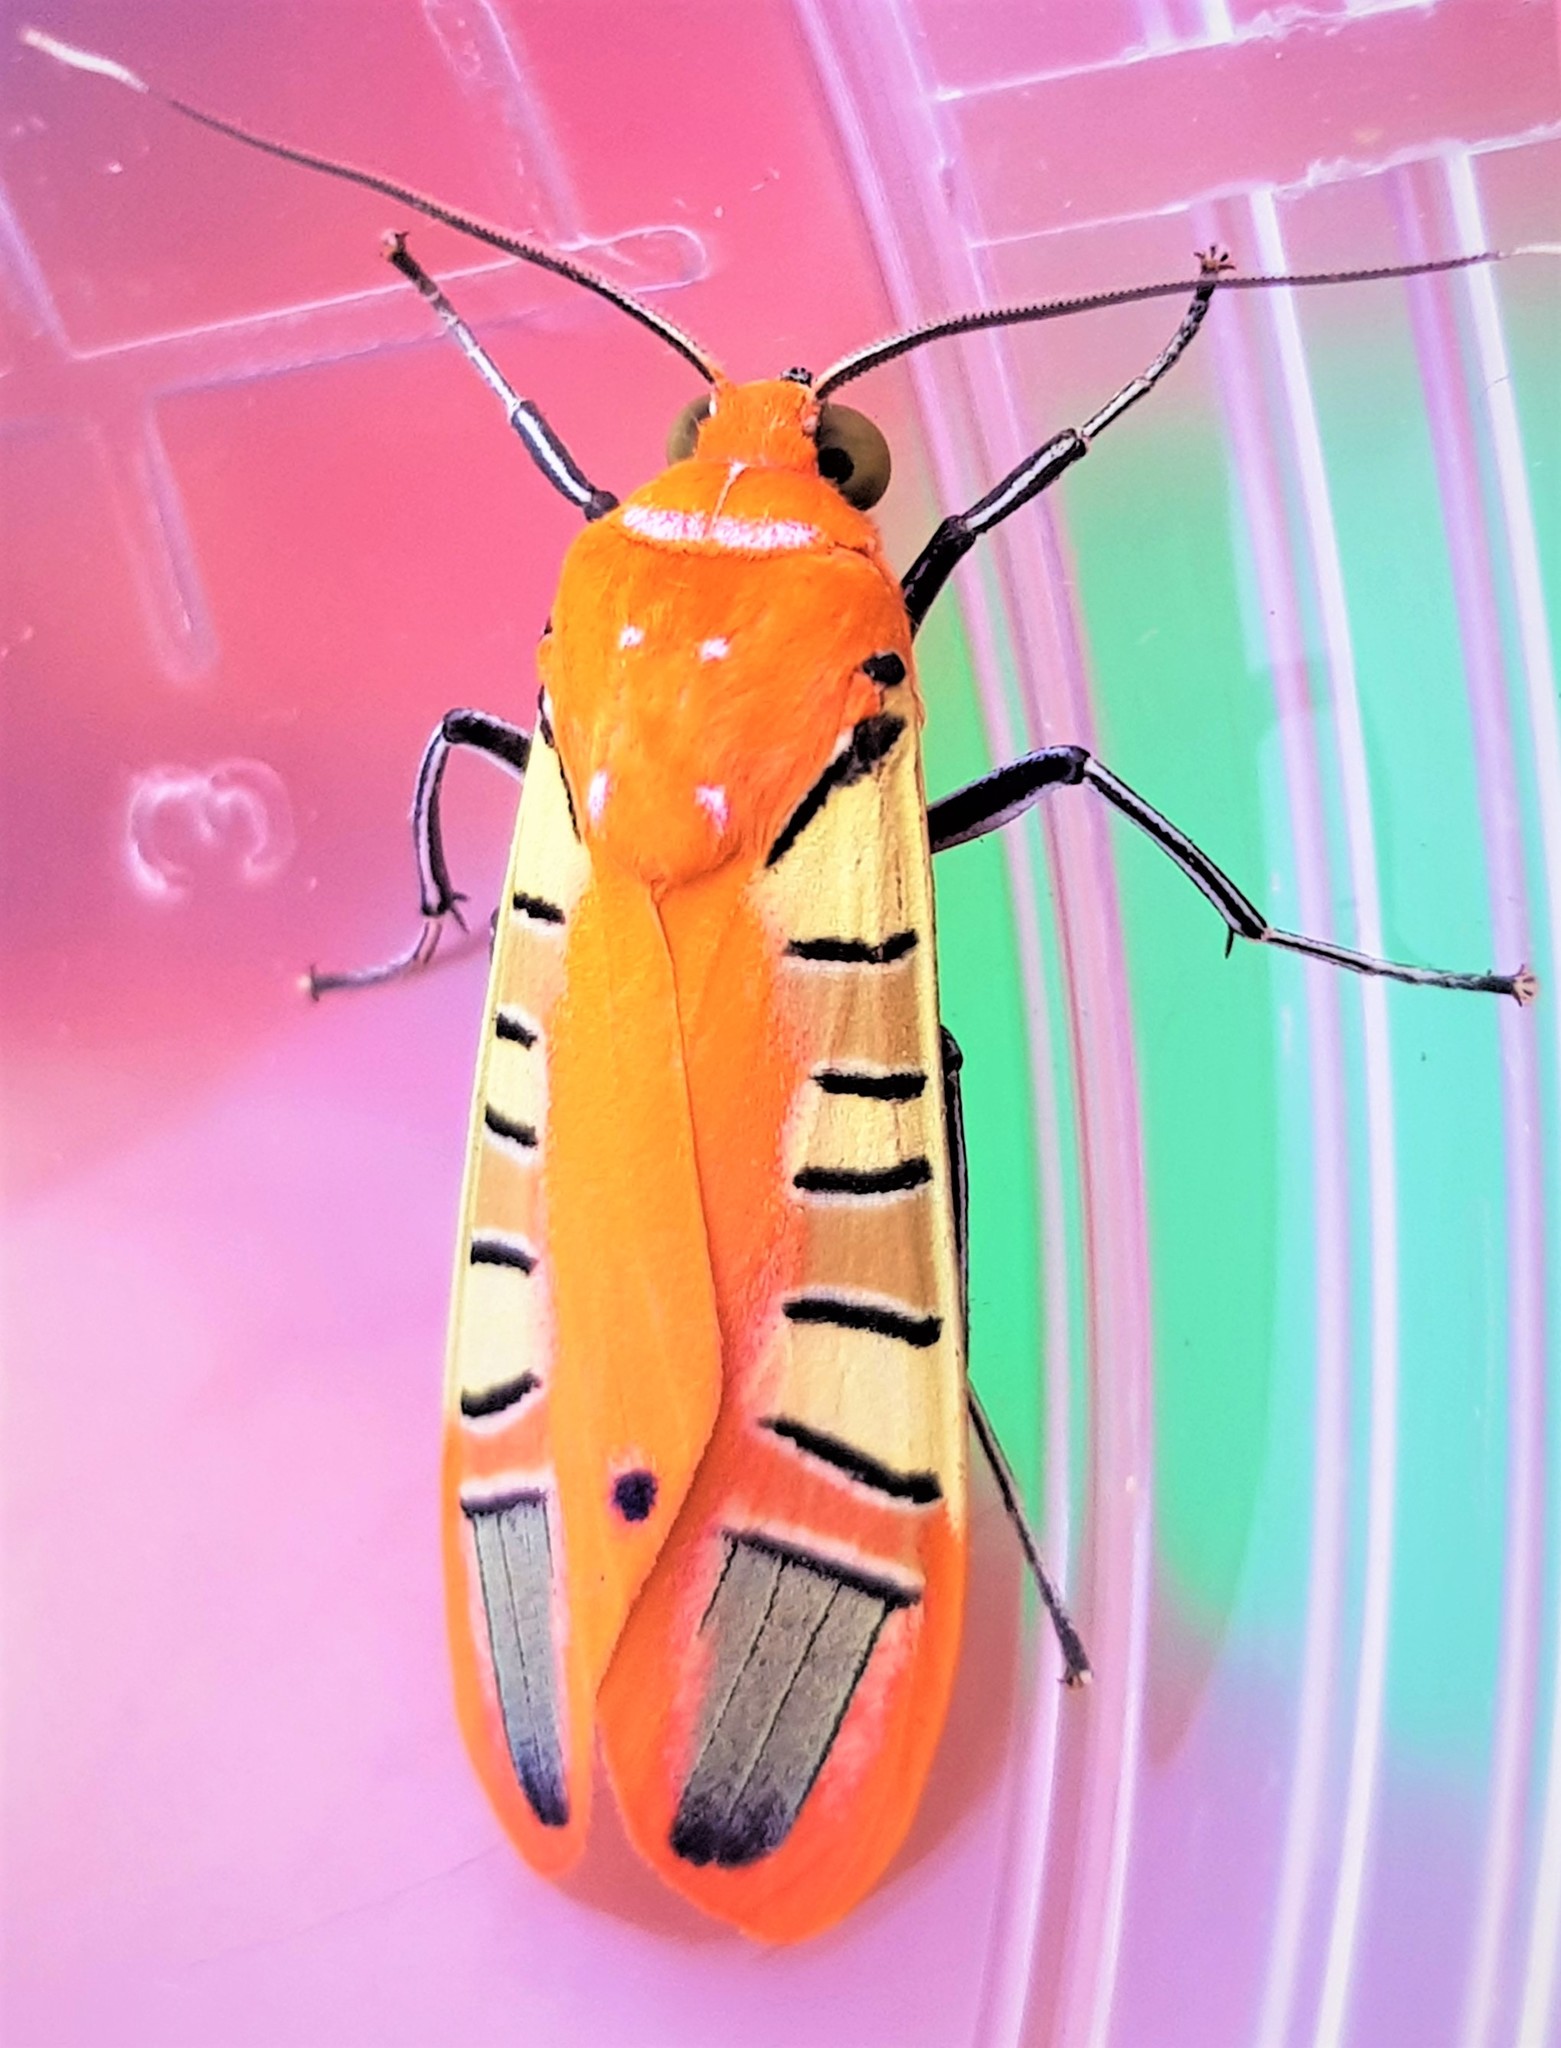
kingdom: Animalia
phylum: Arthropoda
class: Insecta
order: Lepidoptera
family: Erebidae
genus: Gorgonidia
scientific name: Gorgonidia buckleyi
